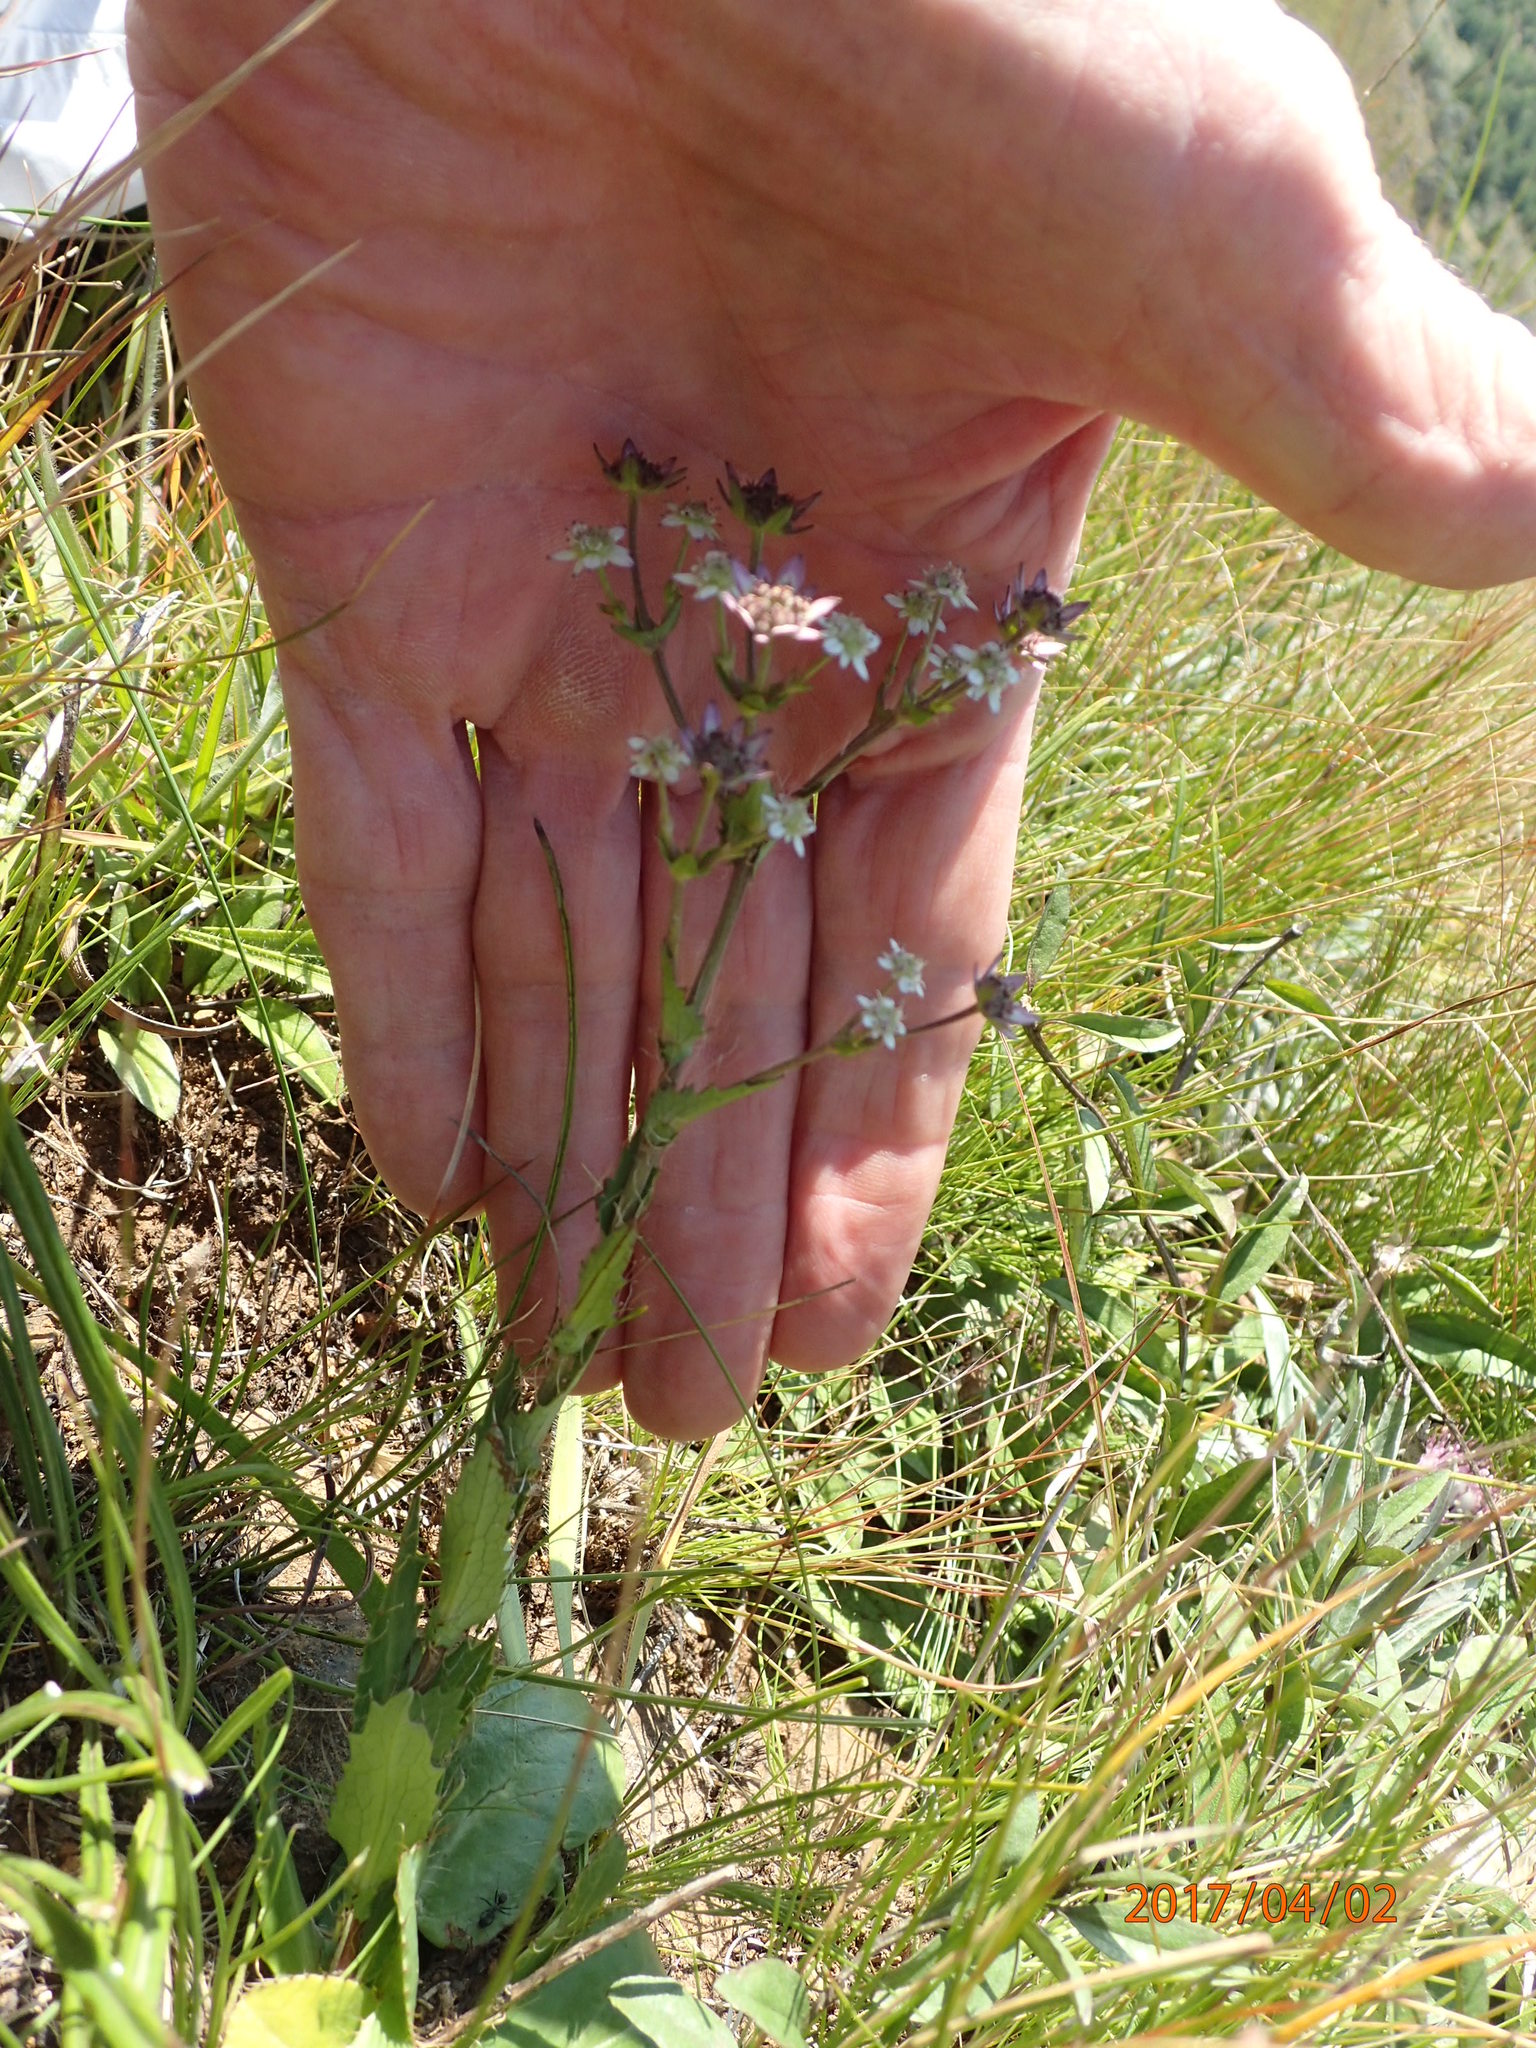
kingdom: Plantae
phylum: Tracheophyta
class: Magnoliopsida
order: Apiales
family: Apiaceae
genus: Alepidea
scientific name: Alepidea setifera
